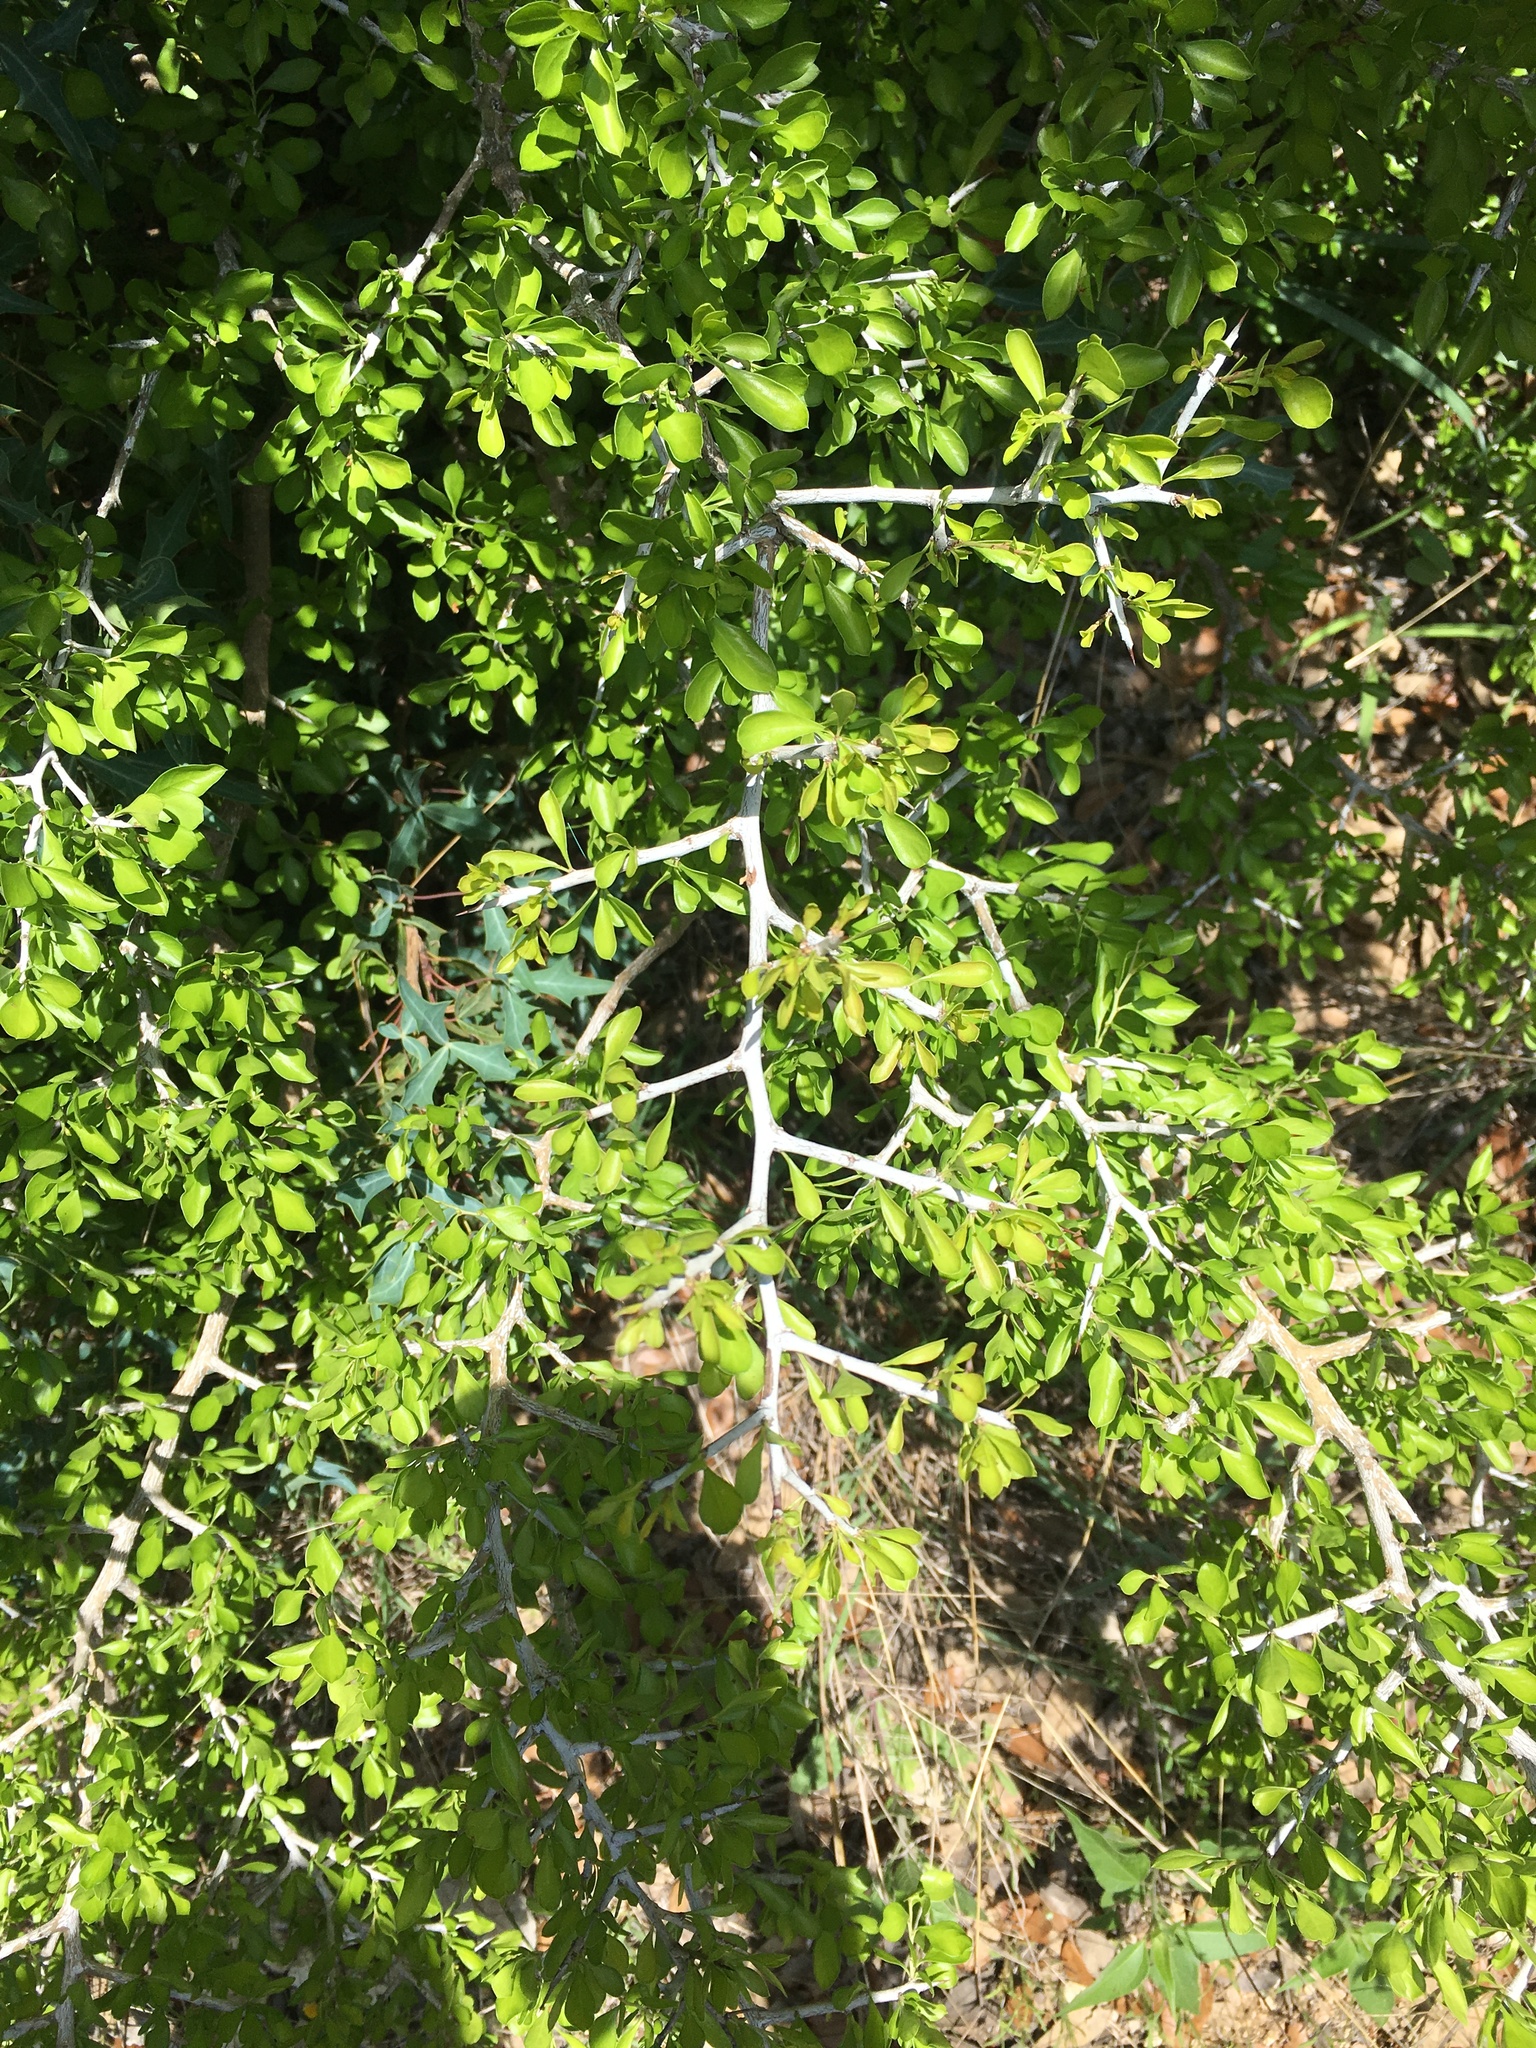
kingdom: Plantae
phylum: Tracheophyta
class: Magnoliopsida
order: Rosales
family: Rhamnaceae
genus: Condalia
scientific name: Condalia hookeri
